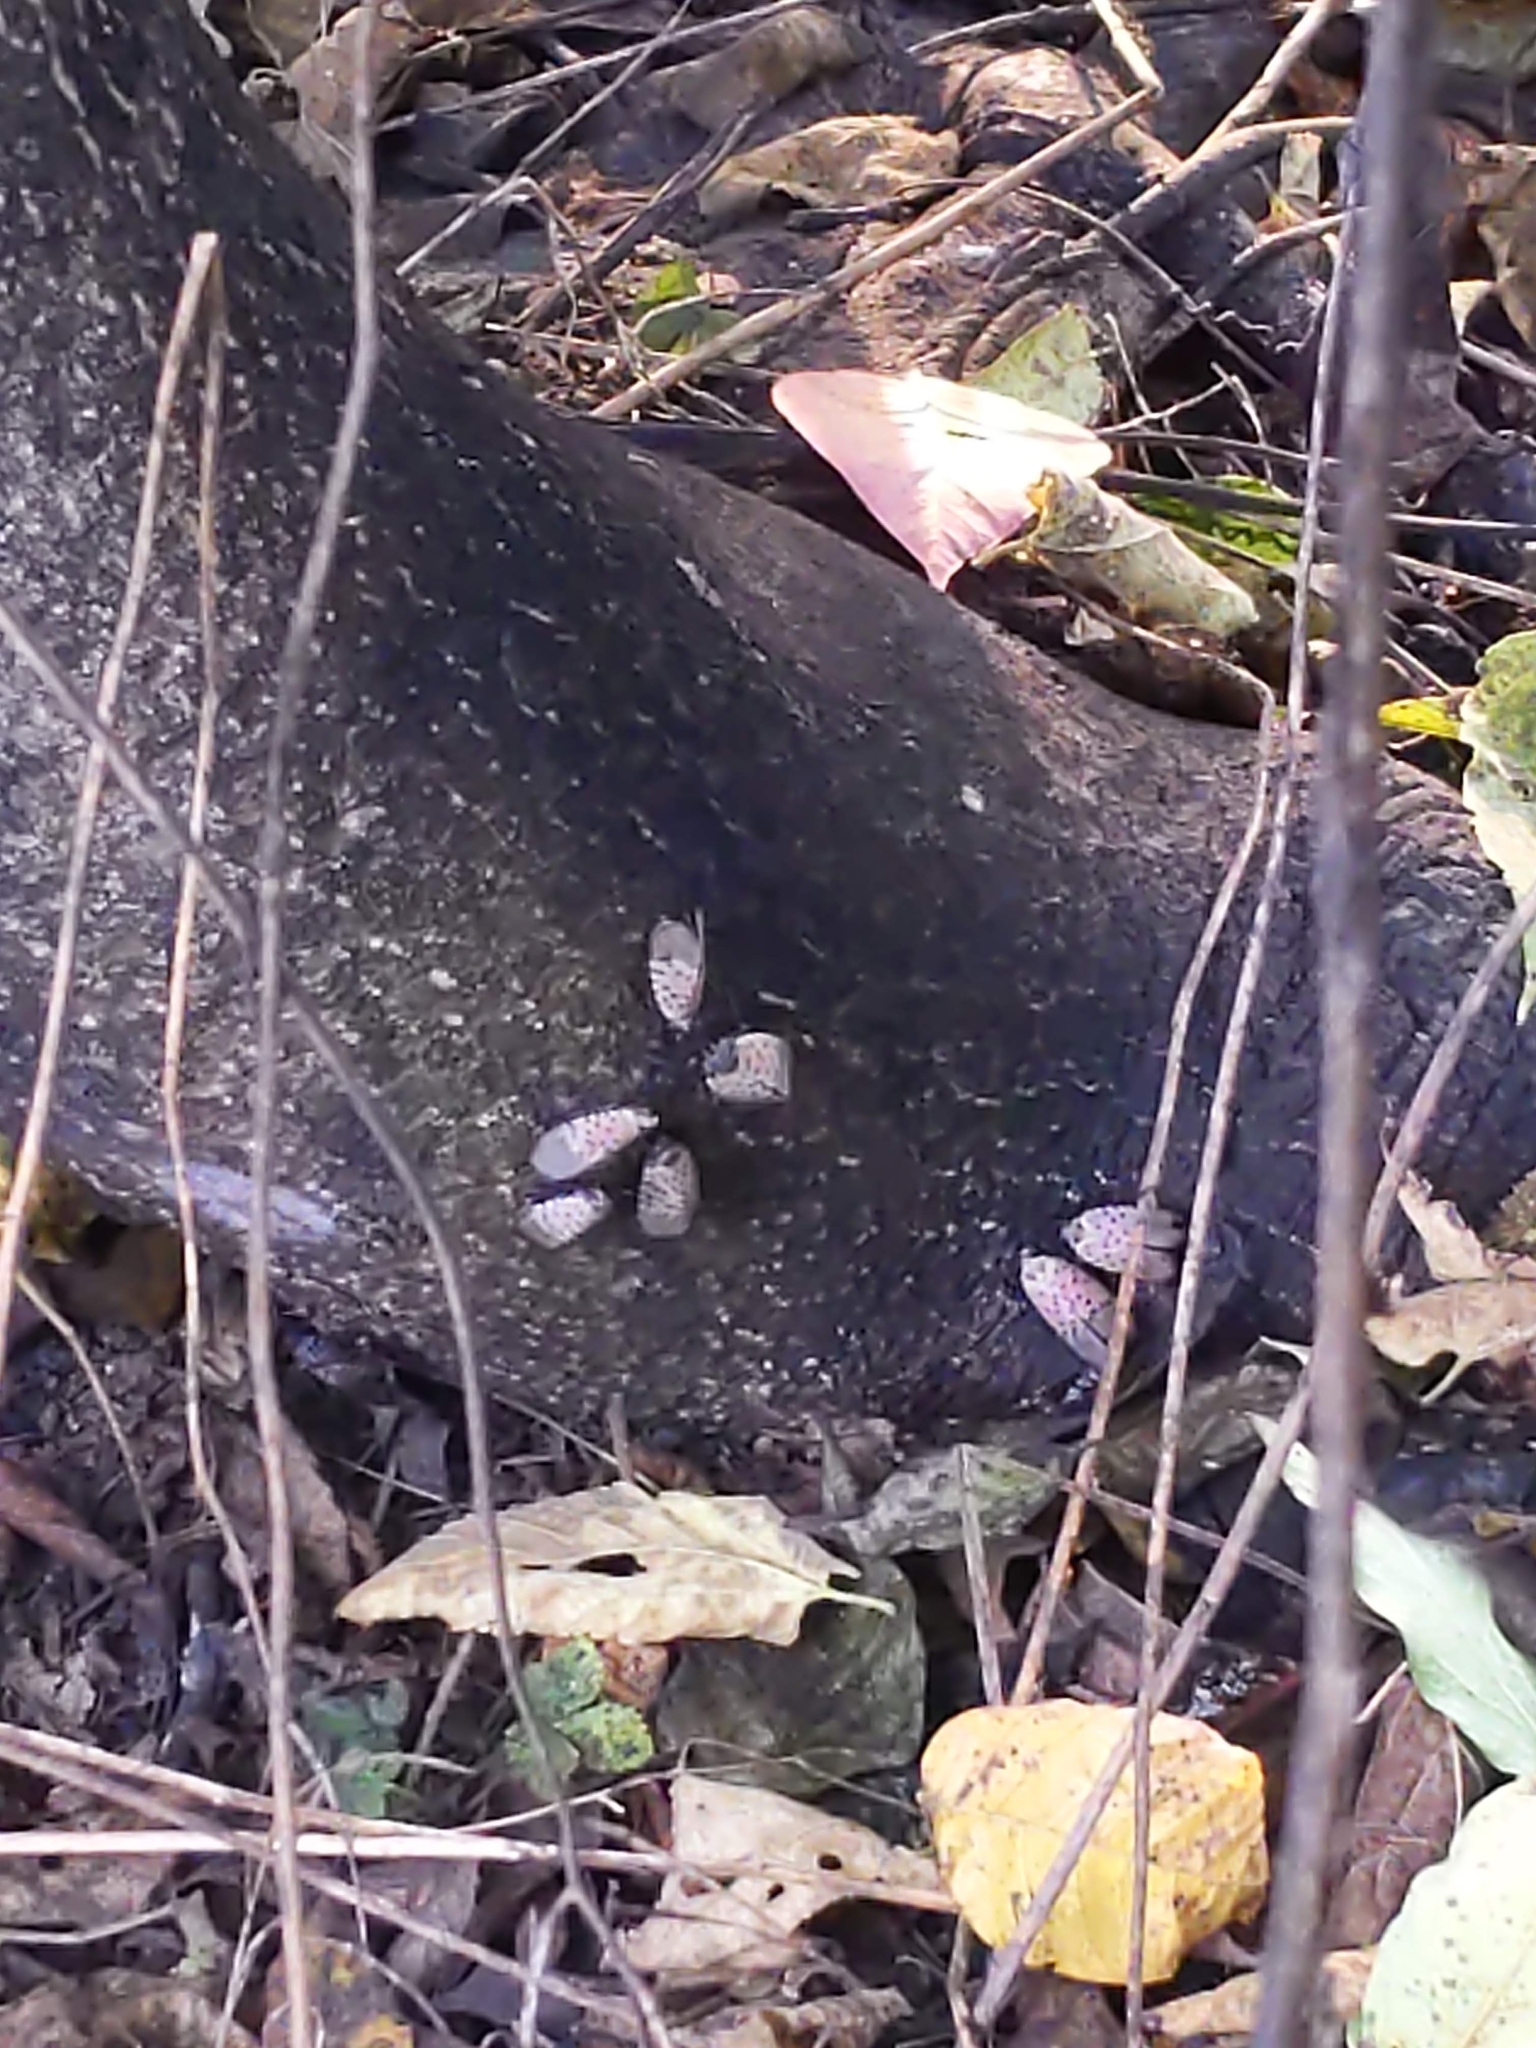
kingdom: Animalia
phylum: Arthropoda
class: Insecta
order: Hemiptera
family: Fulgoridae
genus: Lycorma
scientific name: Lycorma delicatula
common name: Spotted lanternfly
